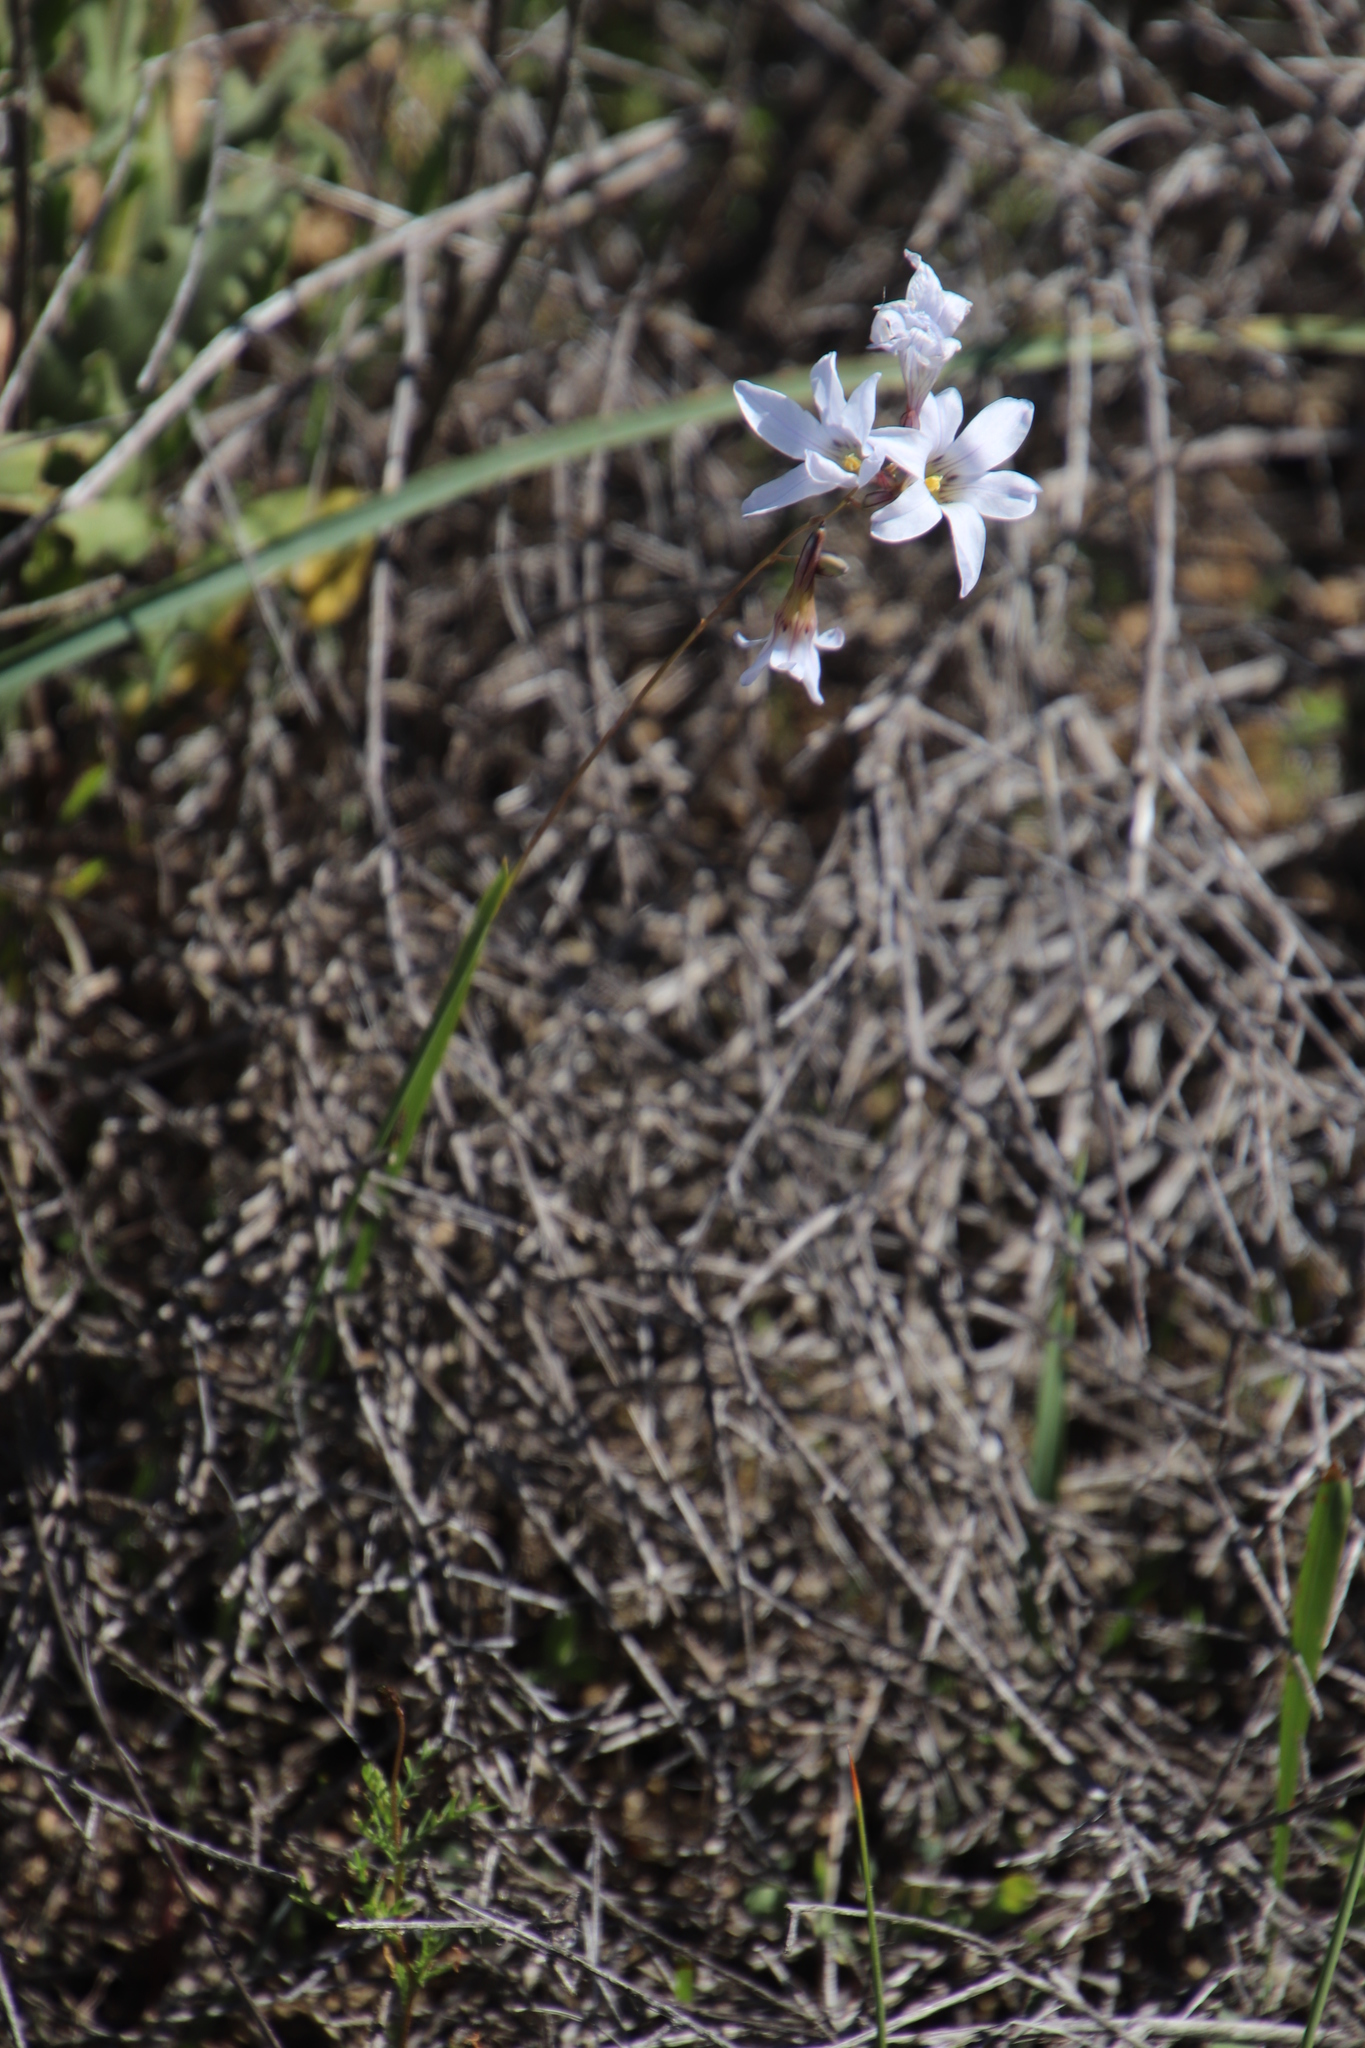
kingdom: Plantae
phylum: Tracheophyta
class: Liliopsida
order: Asparagales
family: Iridaceae
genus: Ixia
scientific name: Ixia rapunculoides
